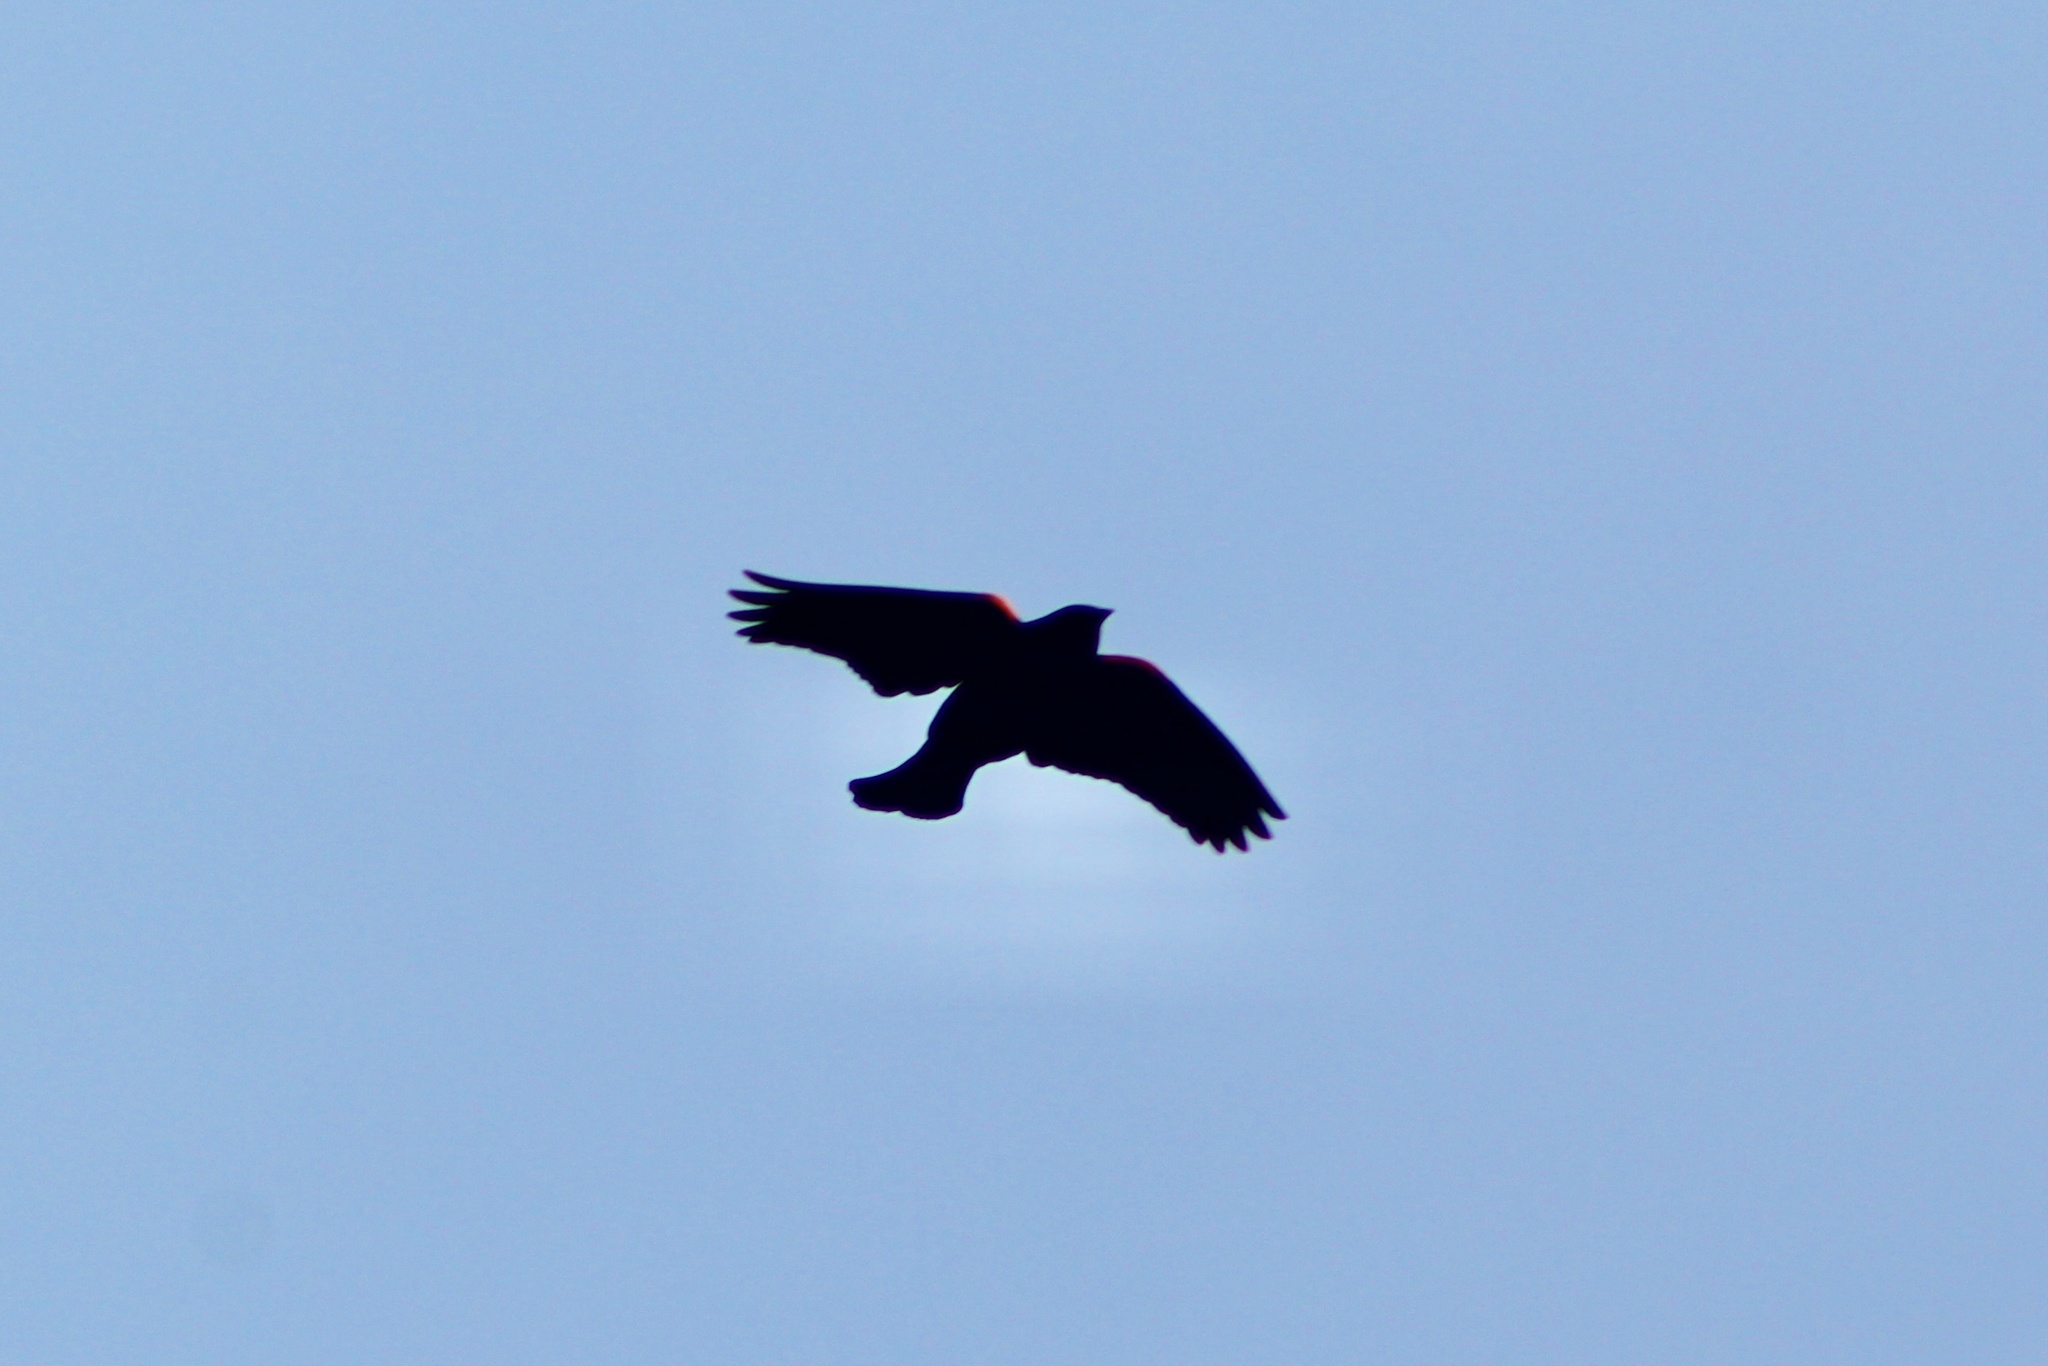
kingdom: Animalia
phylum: Chordata
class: Aves
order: Passeriformes
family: Icteridae
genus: Agelaius
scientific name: Agelaius phoeniceus
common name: Red-winged blackbird
